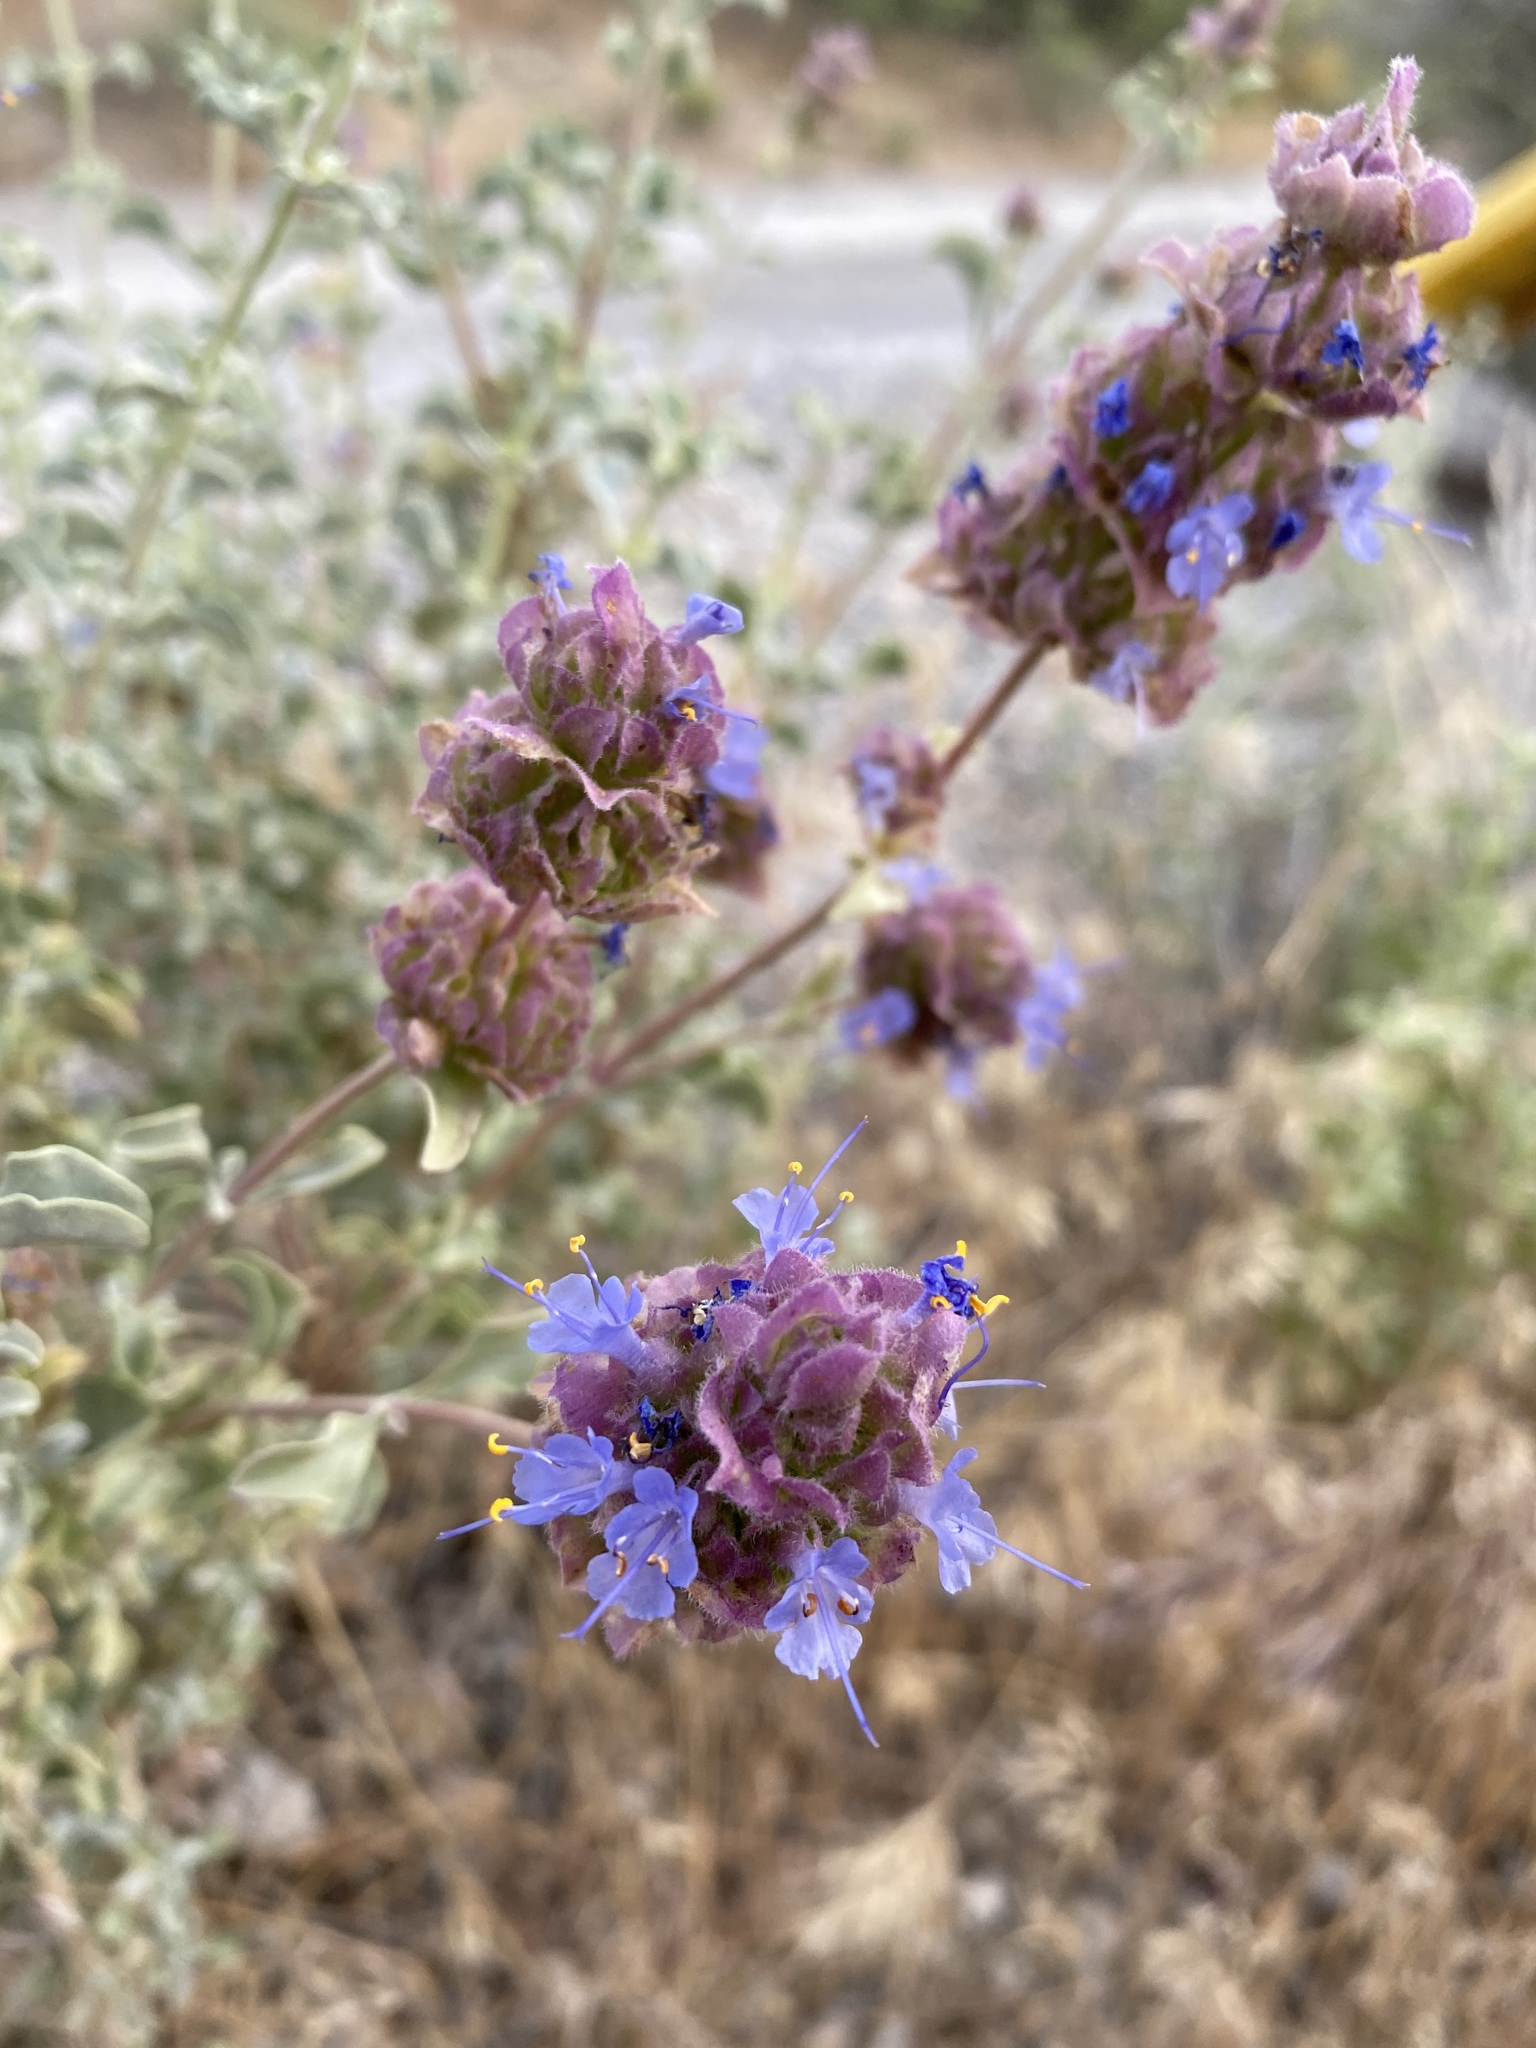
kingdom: Plantae
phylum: Tracheophyta
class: Magnoliopsida
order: Lamiales
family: Lamiaceae
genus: Salvia
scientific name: Salvia dorrii
